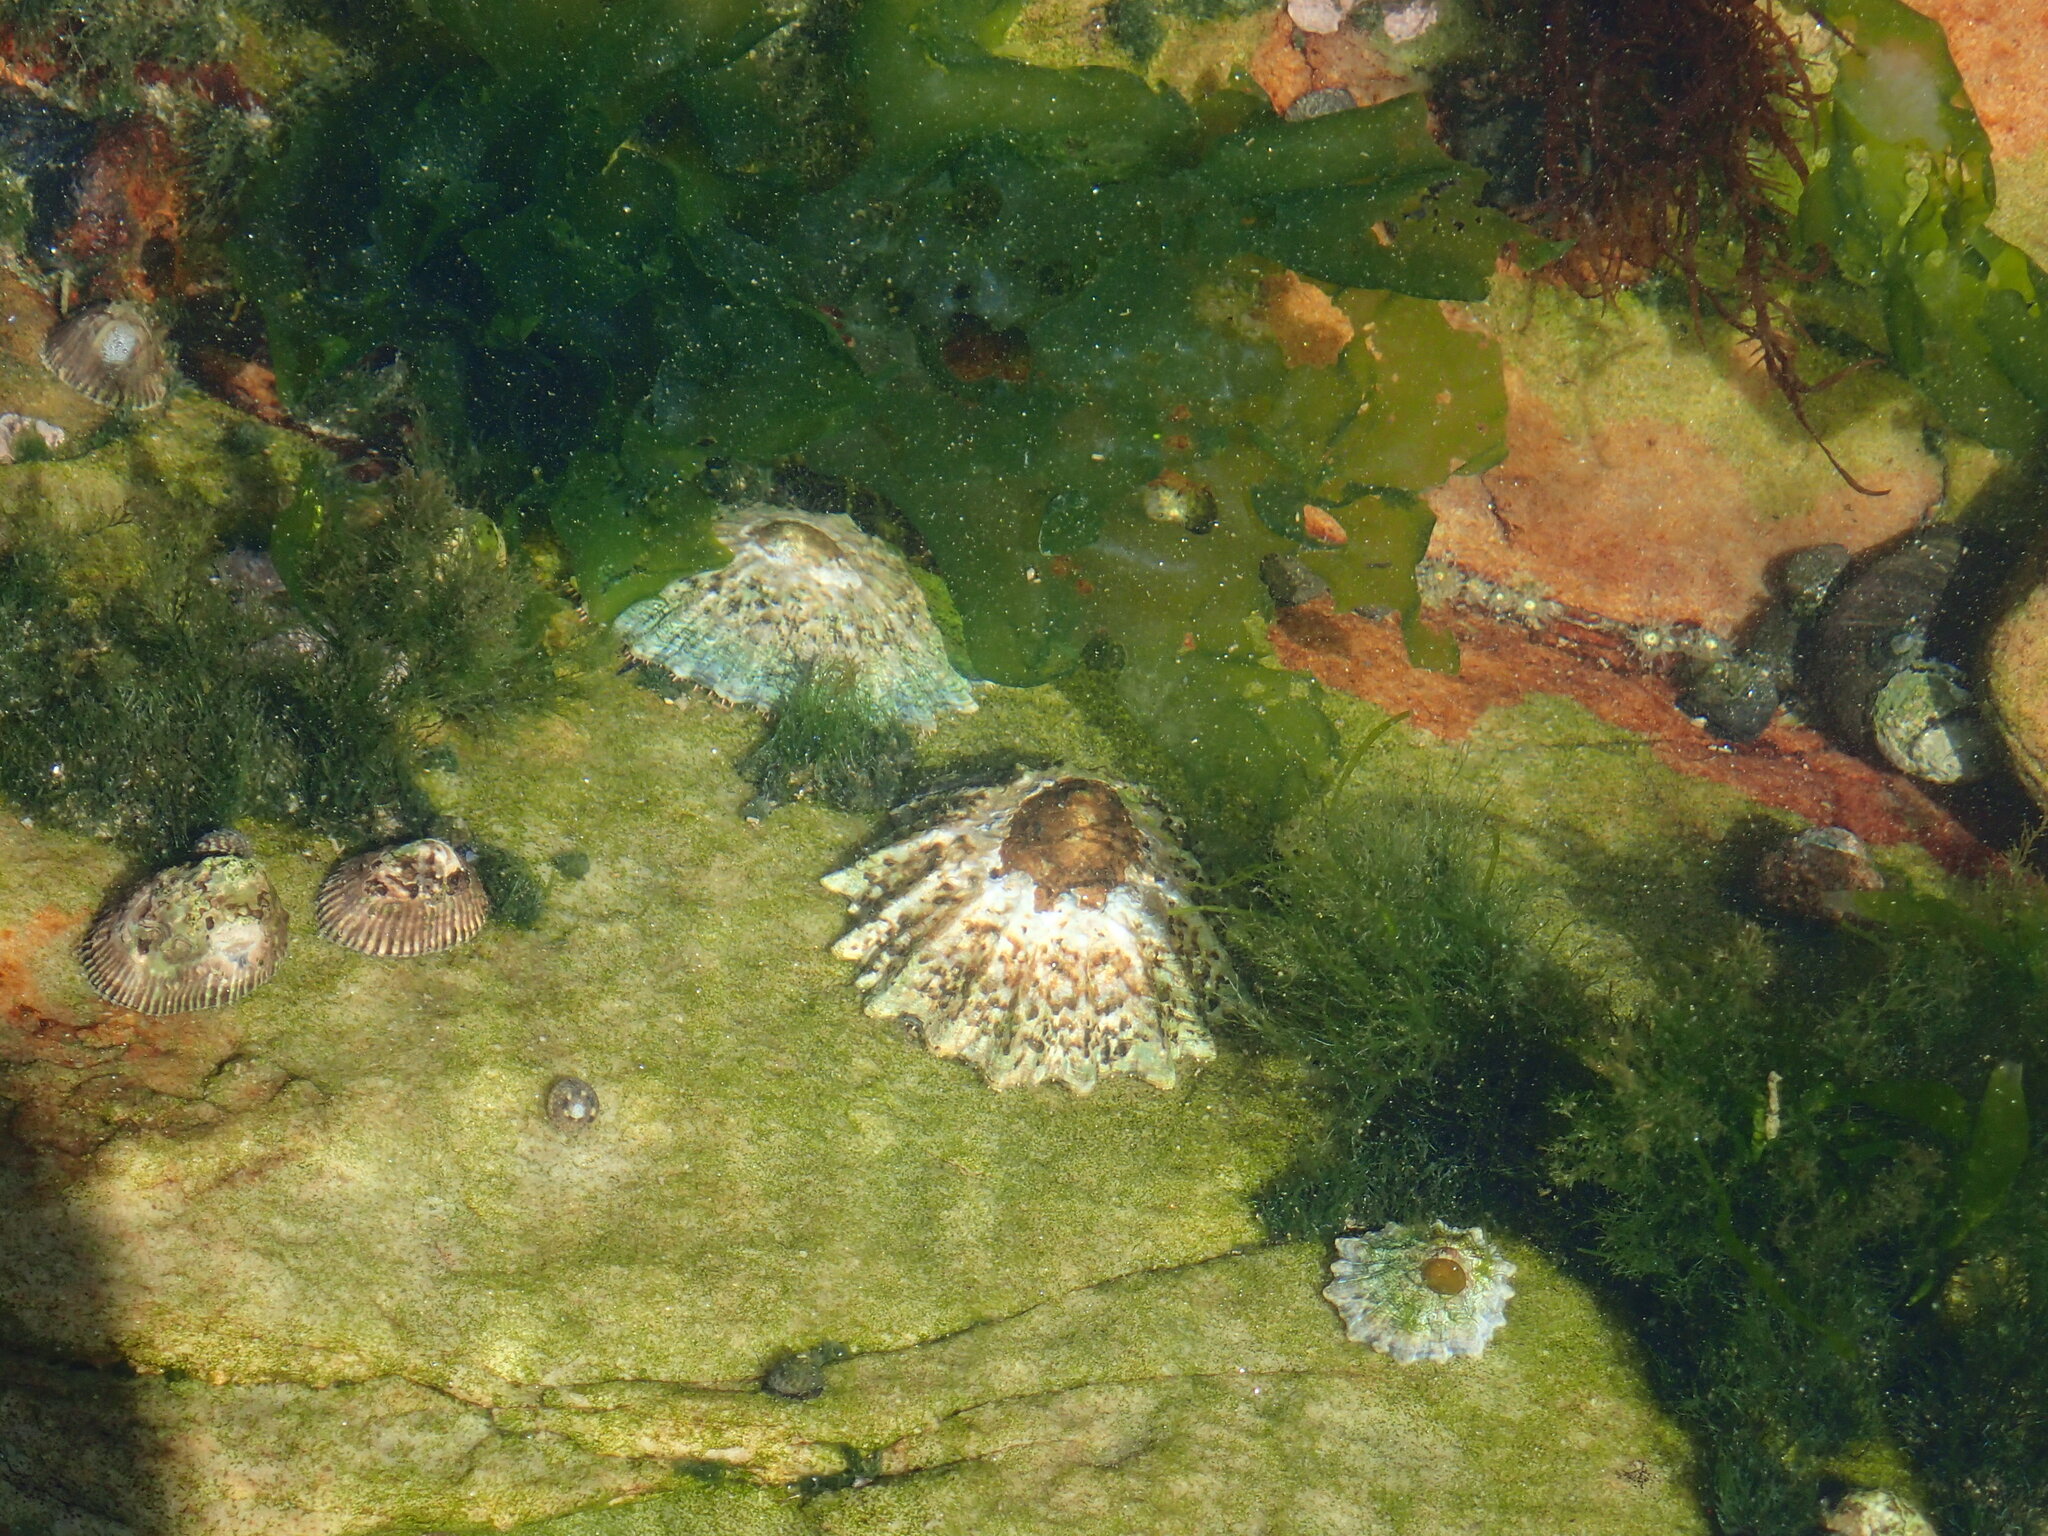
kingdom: Animalia
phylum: Mollusca
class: Gastropoda
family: Patellidae
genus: Cymbula
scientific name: Cymbula granatina
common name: Granite limpet
